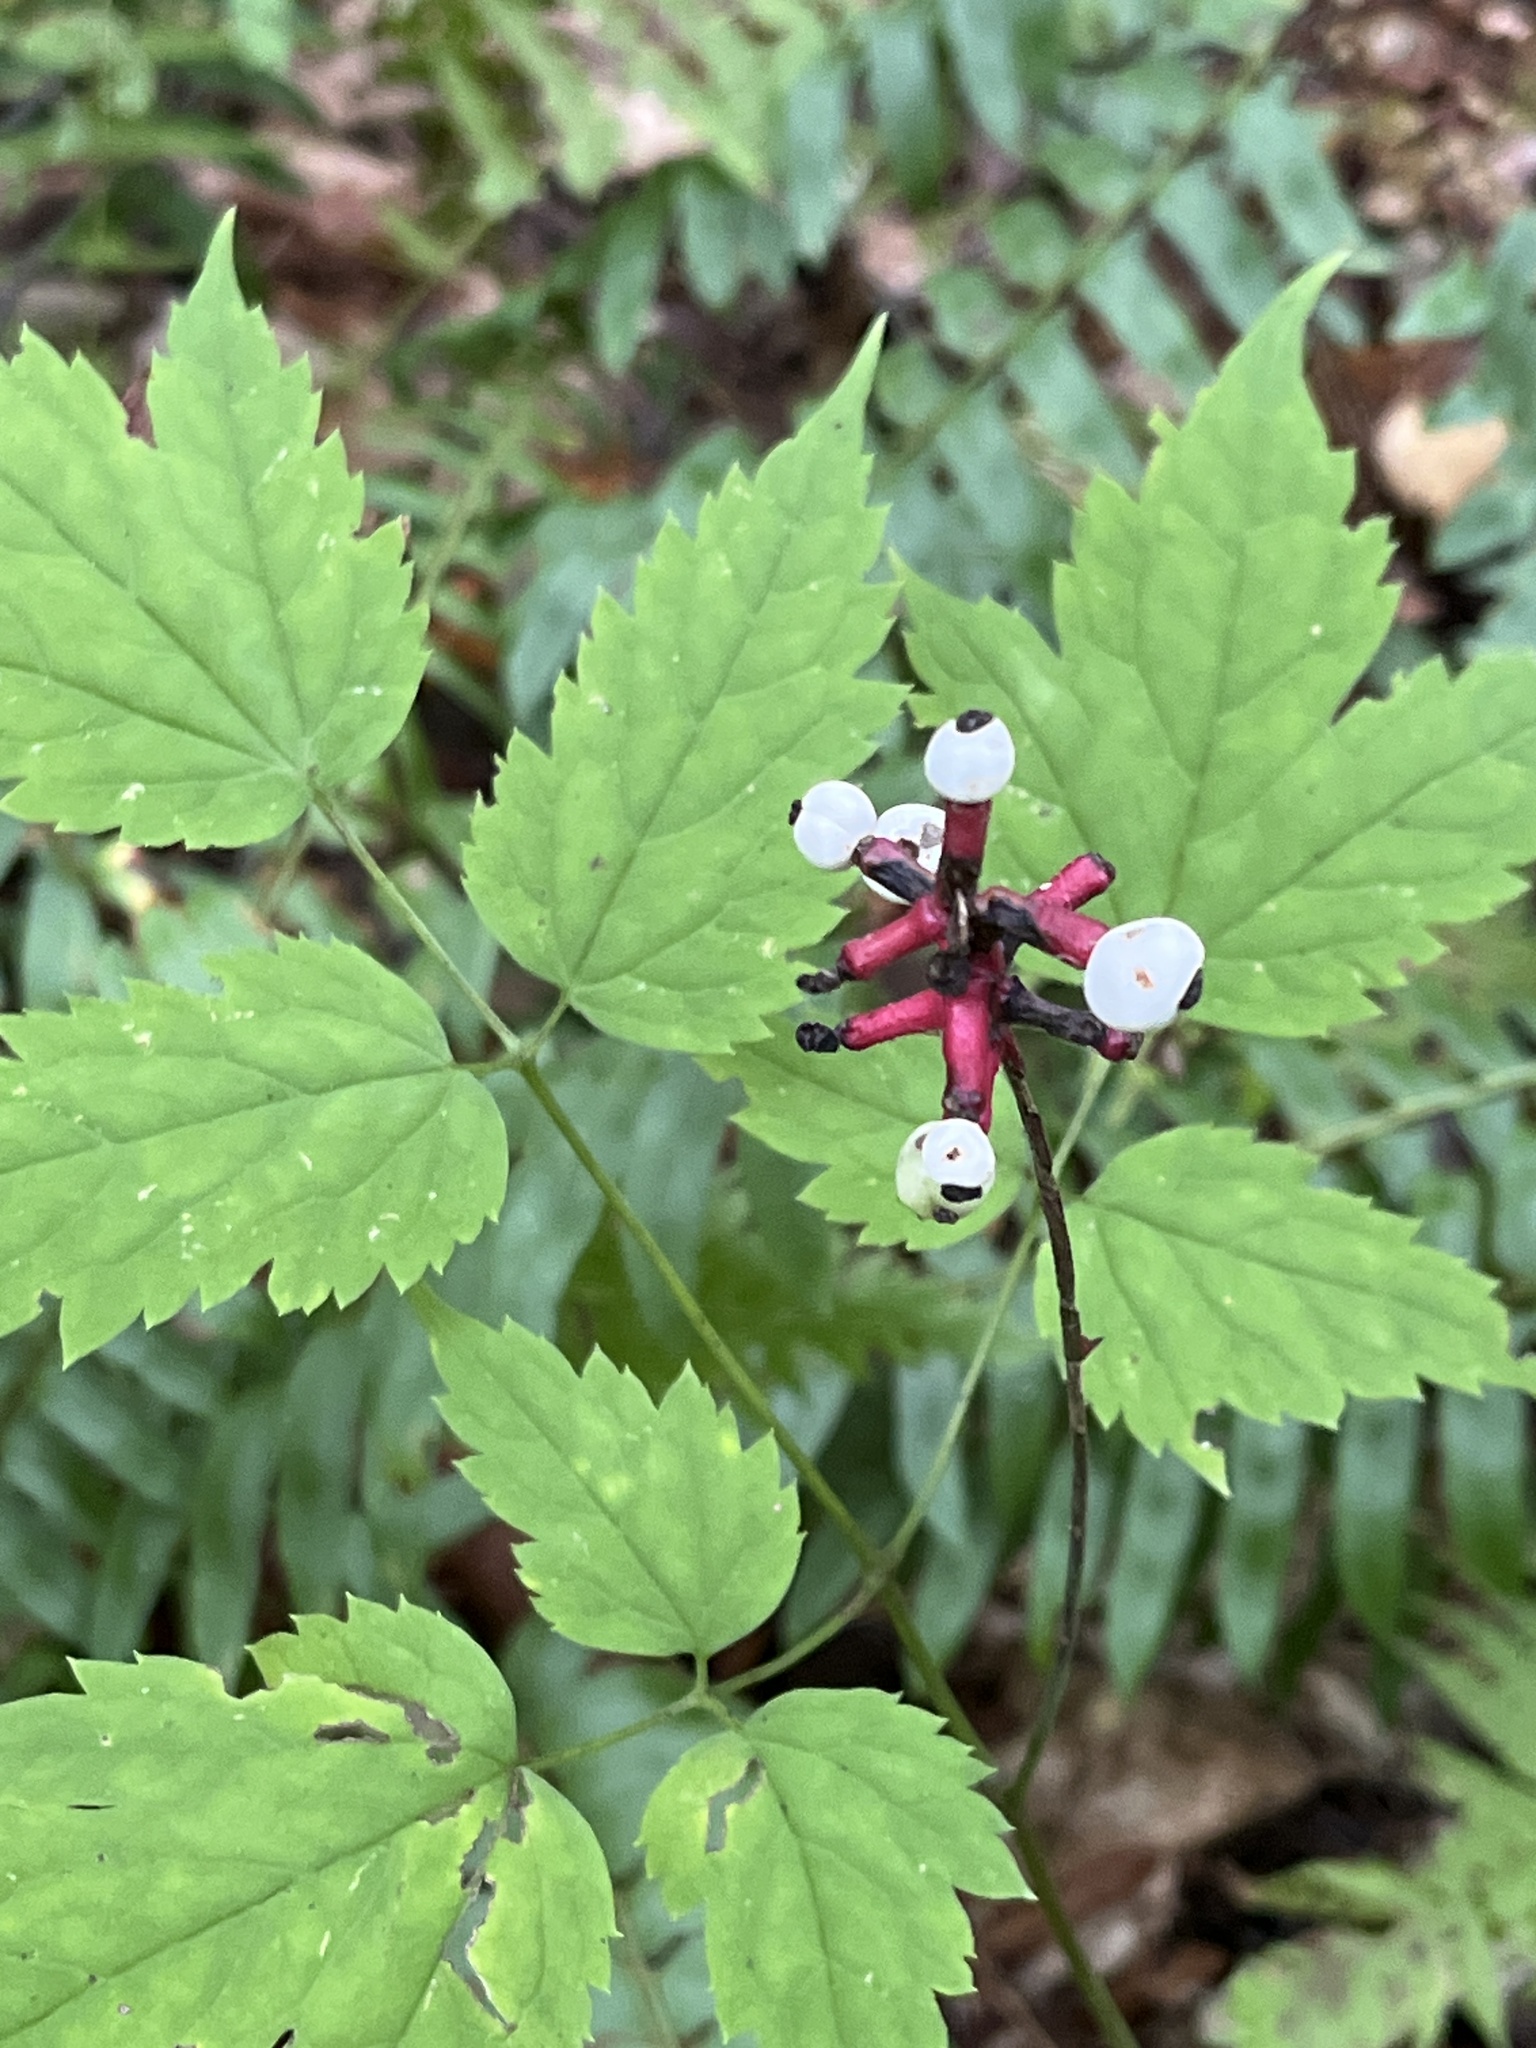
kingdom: Plantae
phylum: Tracheophyta
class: Magnoliopsida
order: Ranunculales
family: Ranunculaceae
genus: Actaea
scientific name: Actaea pachypoda
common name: Doll's-eyes
